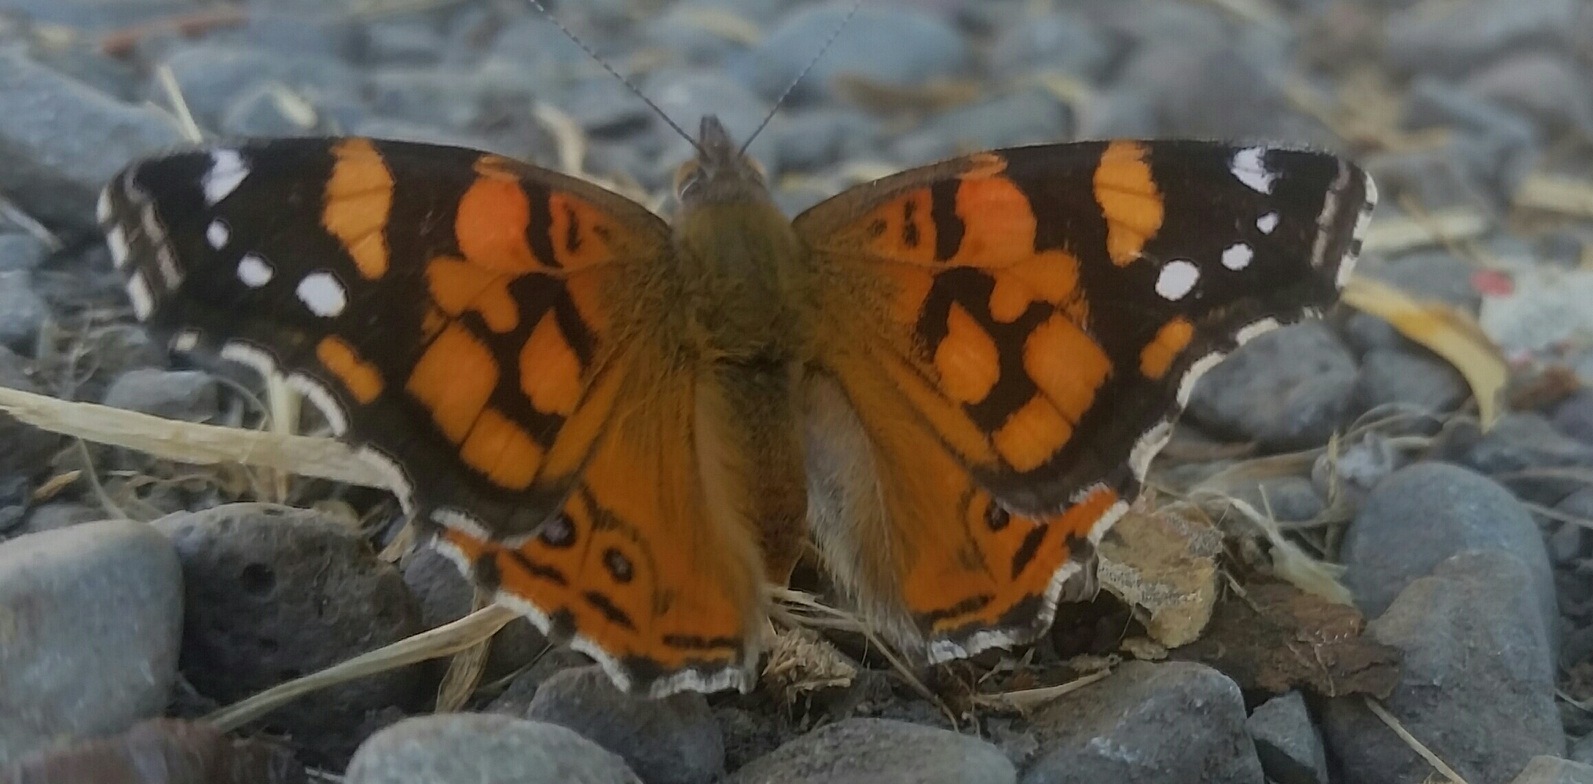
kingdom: Animalia
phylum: Arthropoda
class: Insecta
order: Lepidoptera
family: Nymphalidae
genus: Vanessa
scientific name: Vanessa annabella
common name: West coast lady
